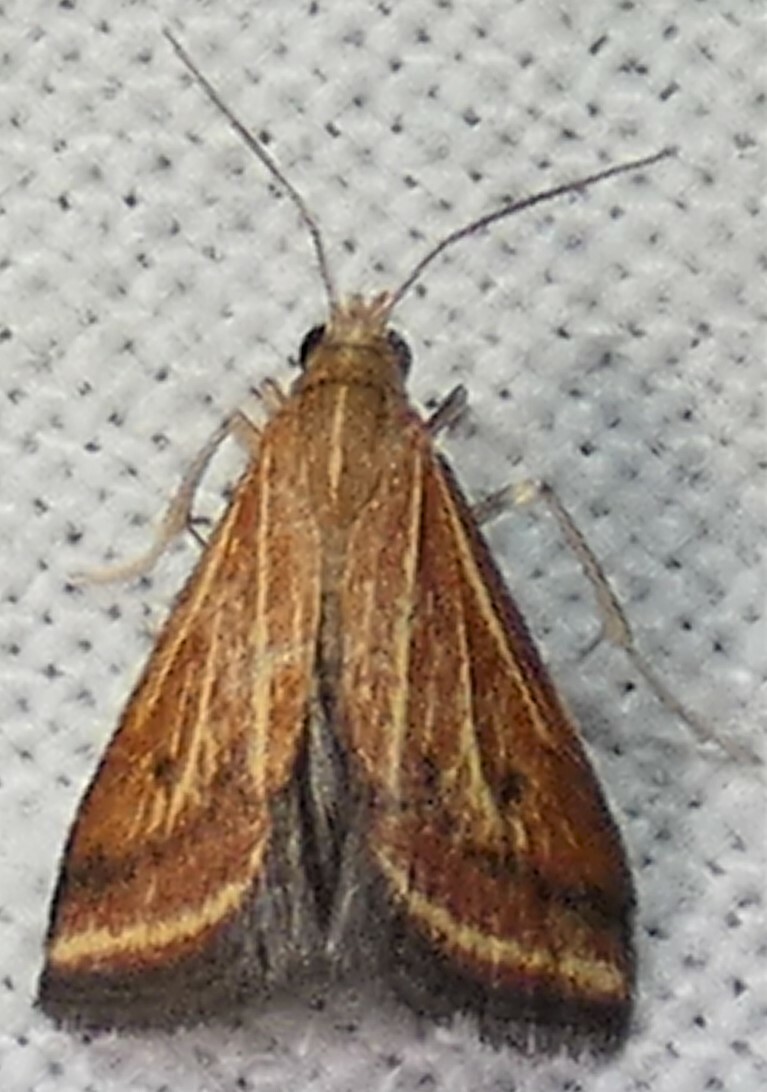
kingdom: Animalia
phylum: Arthropoda
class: Insecta
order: Lepidoptera
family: Crambidae
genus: Microtheoris
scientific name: Microtheoris ophionalis
